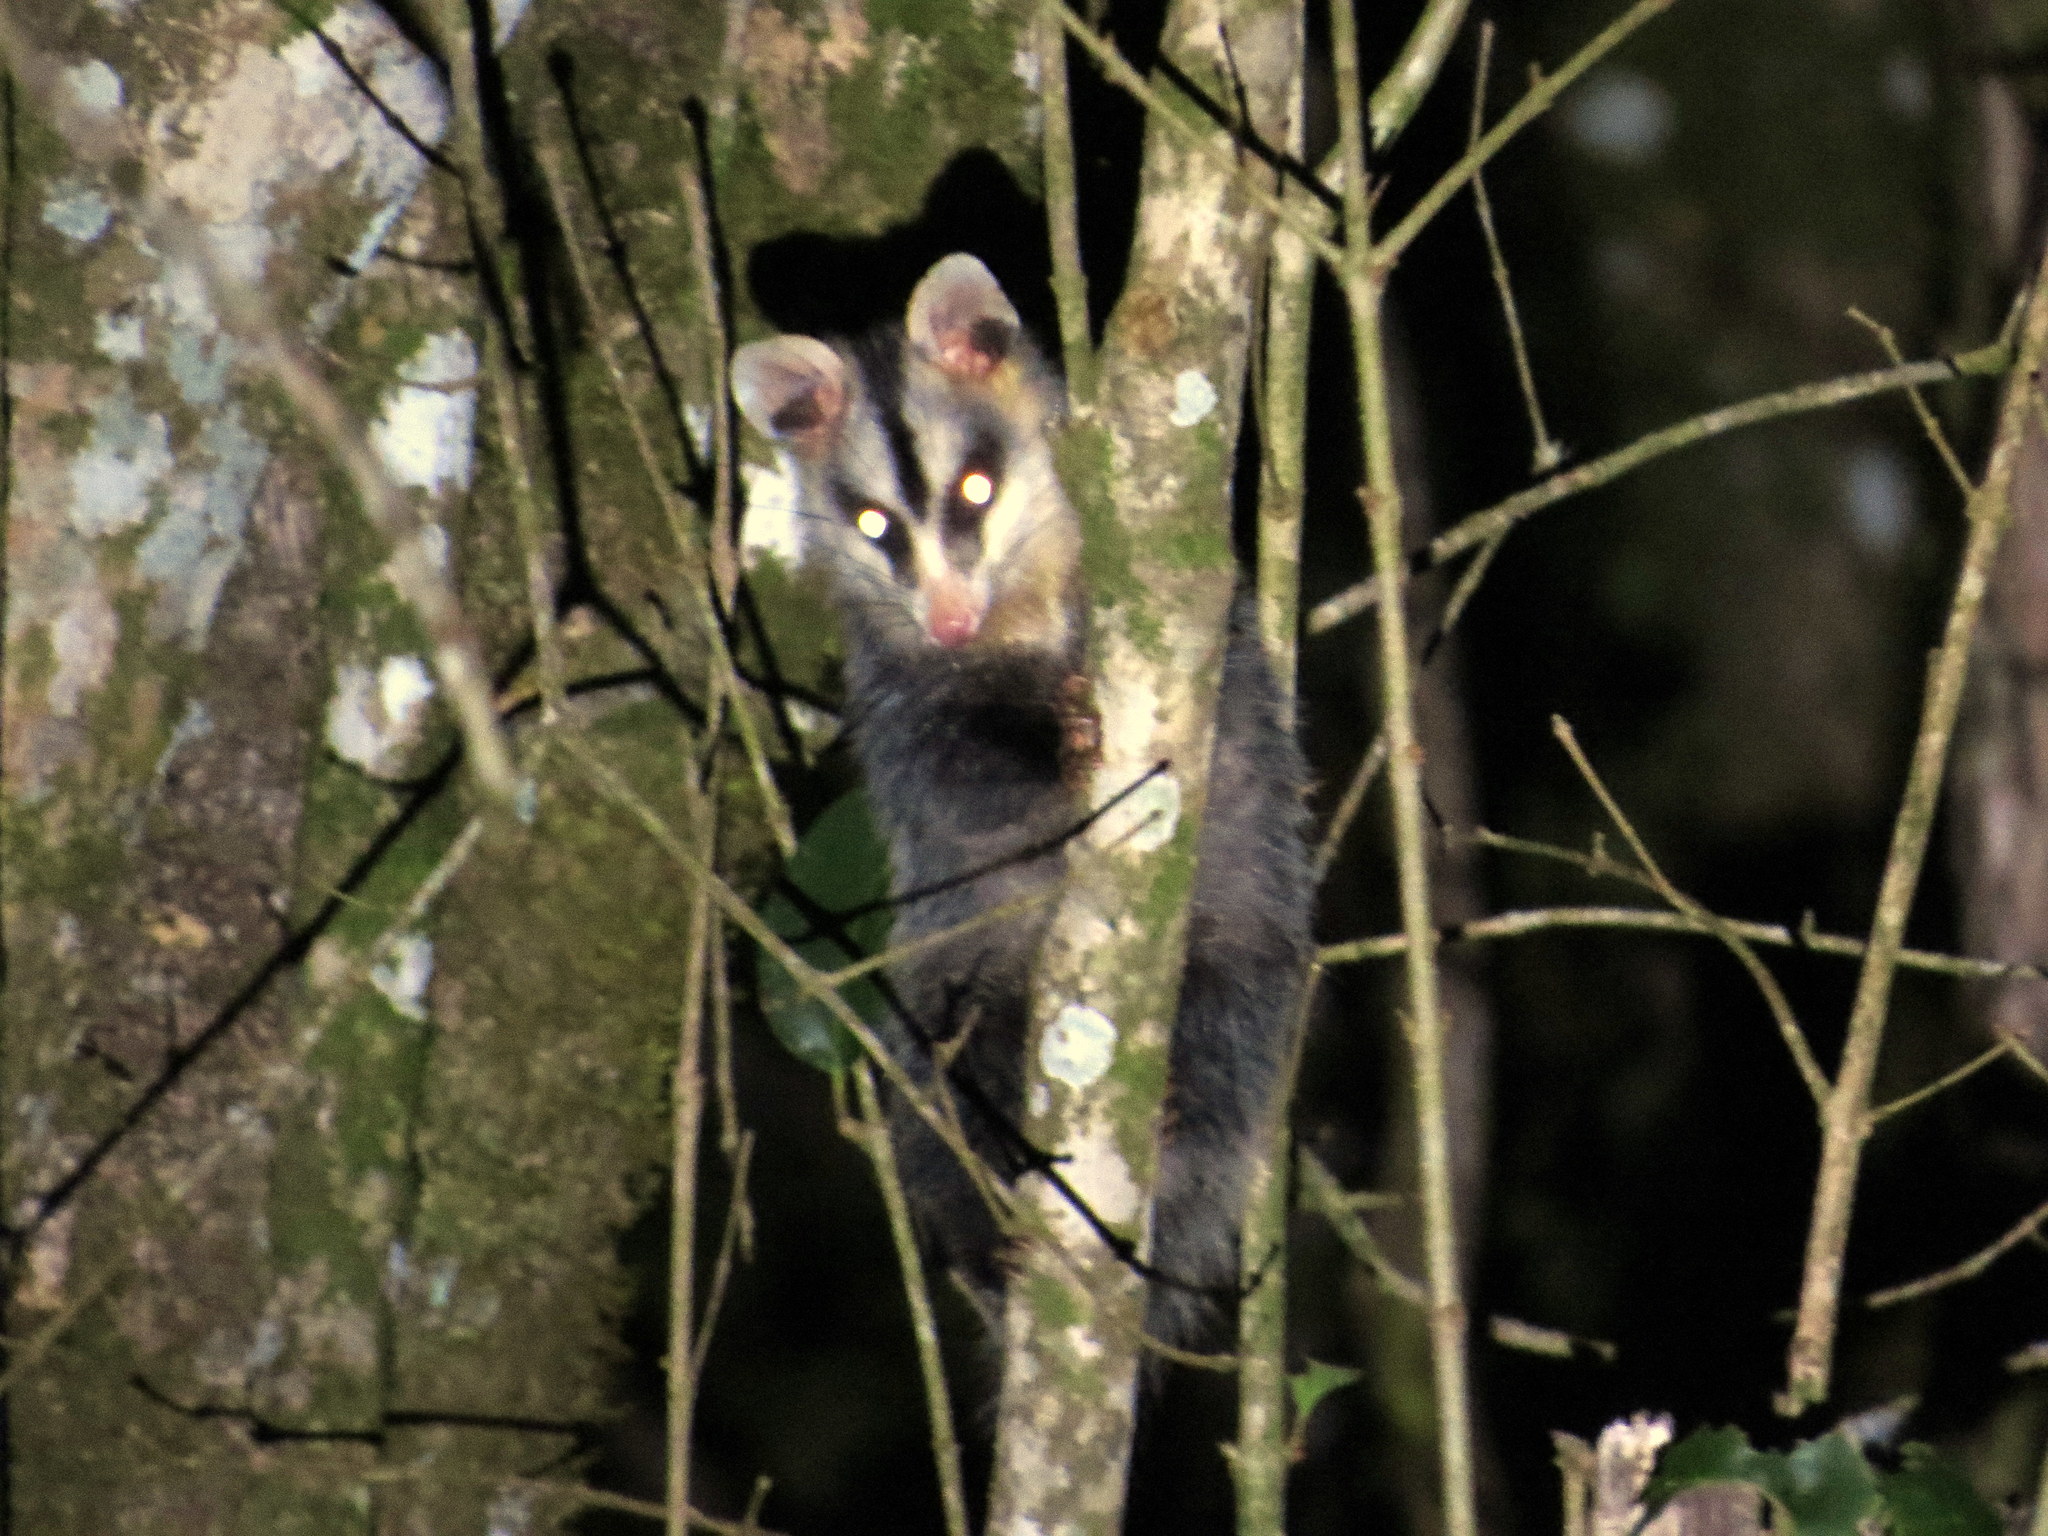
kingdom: Animalia
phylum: Chordata
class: Mammalia
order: Didelphimorphia
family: Didelphidae
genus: Didelphis
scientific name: Didelphis albiventris
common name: White-eared opossum
